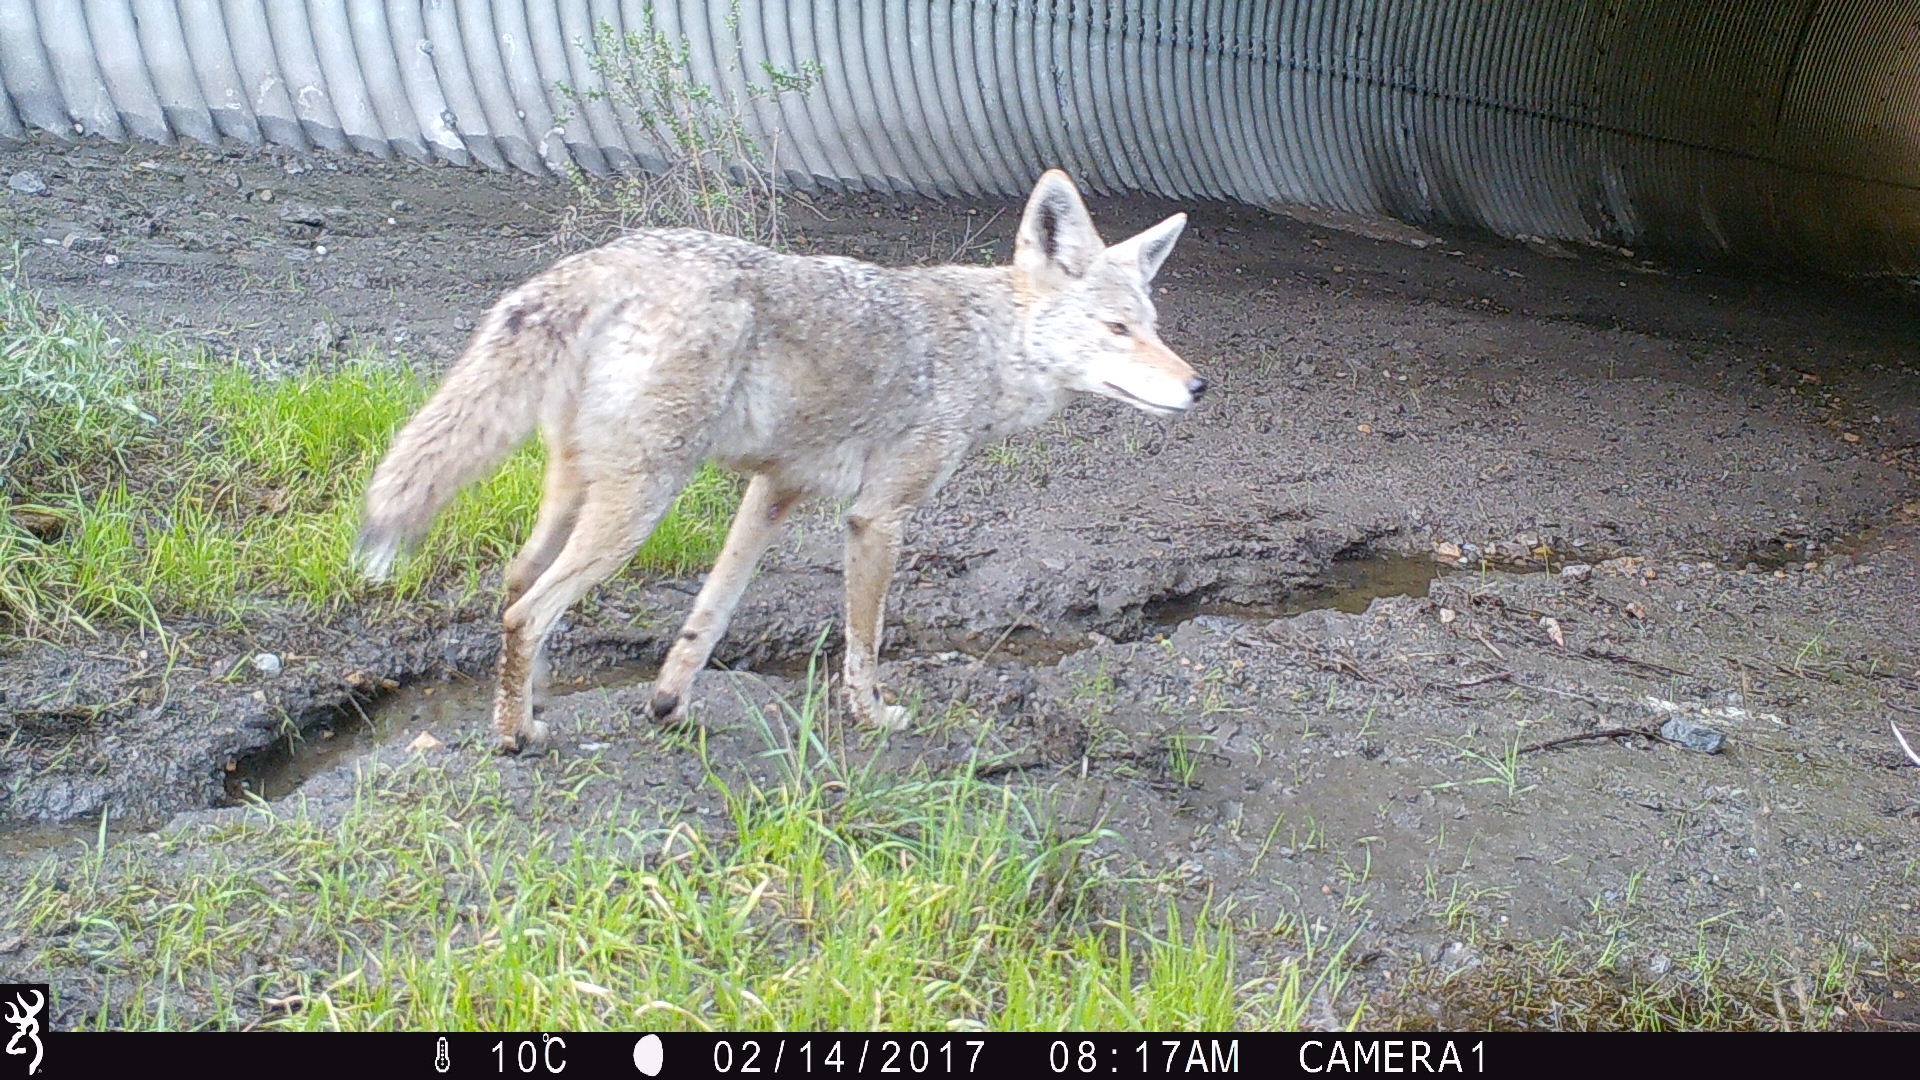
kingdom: Animalia
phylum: Chordata
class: Mammalia
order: Carnivora
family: Canidae
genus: Canis
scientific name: Canis latrans
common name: Coyote
